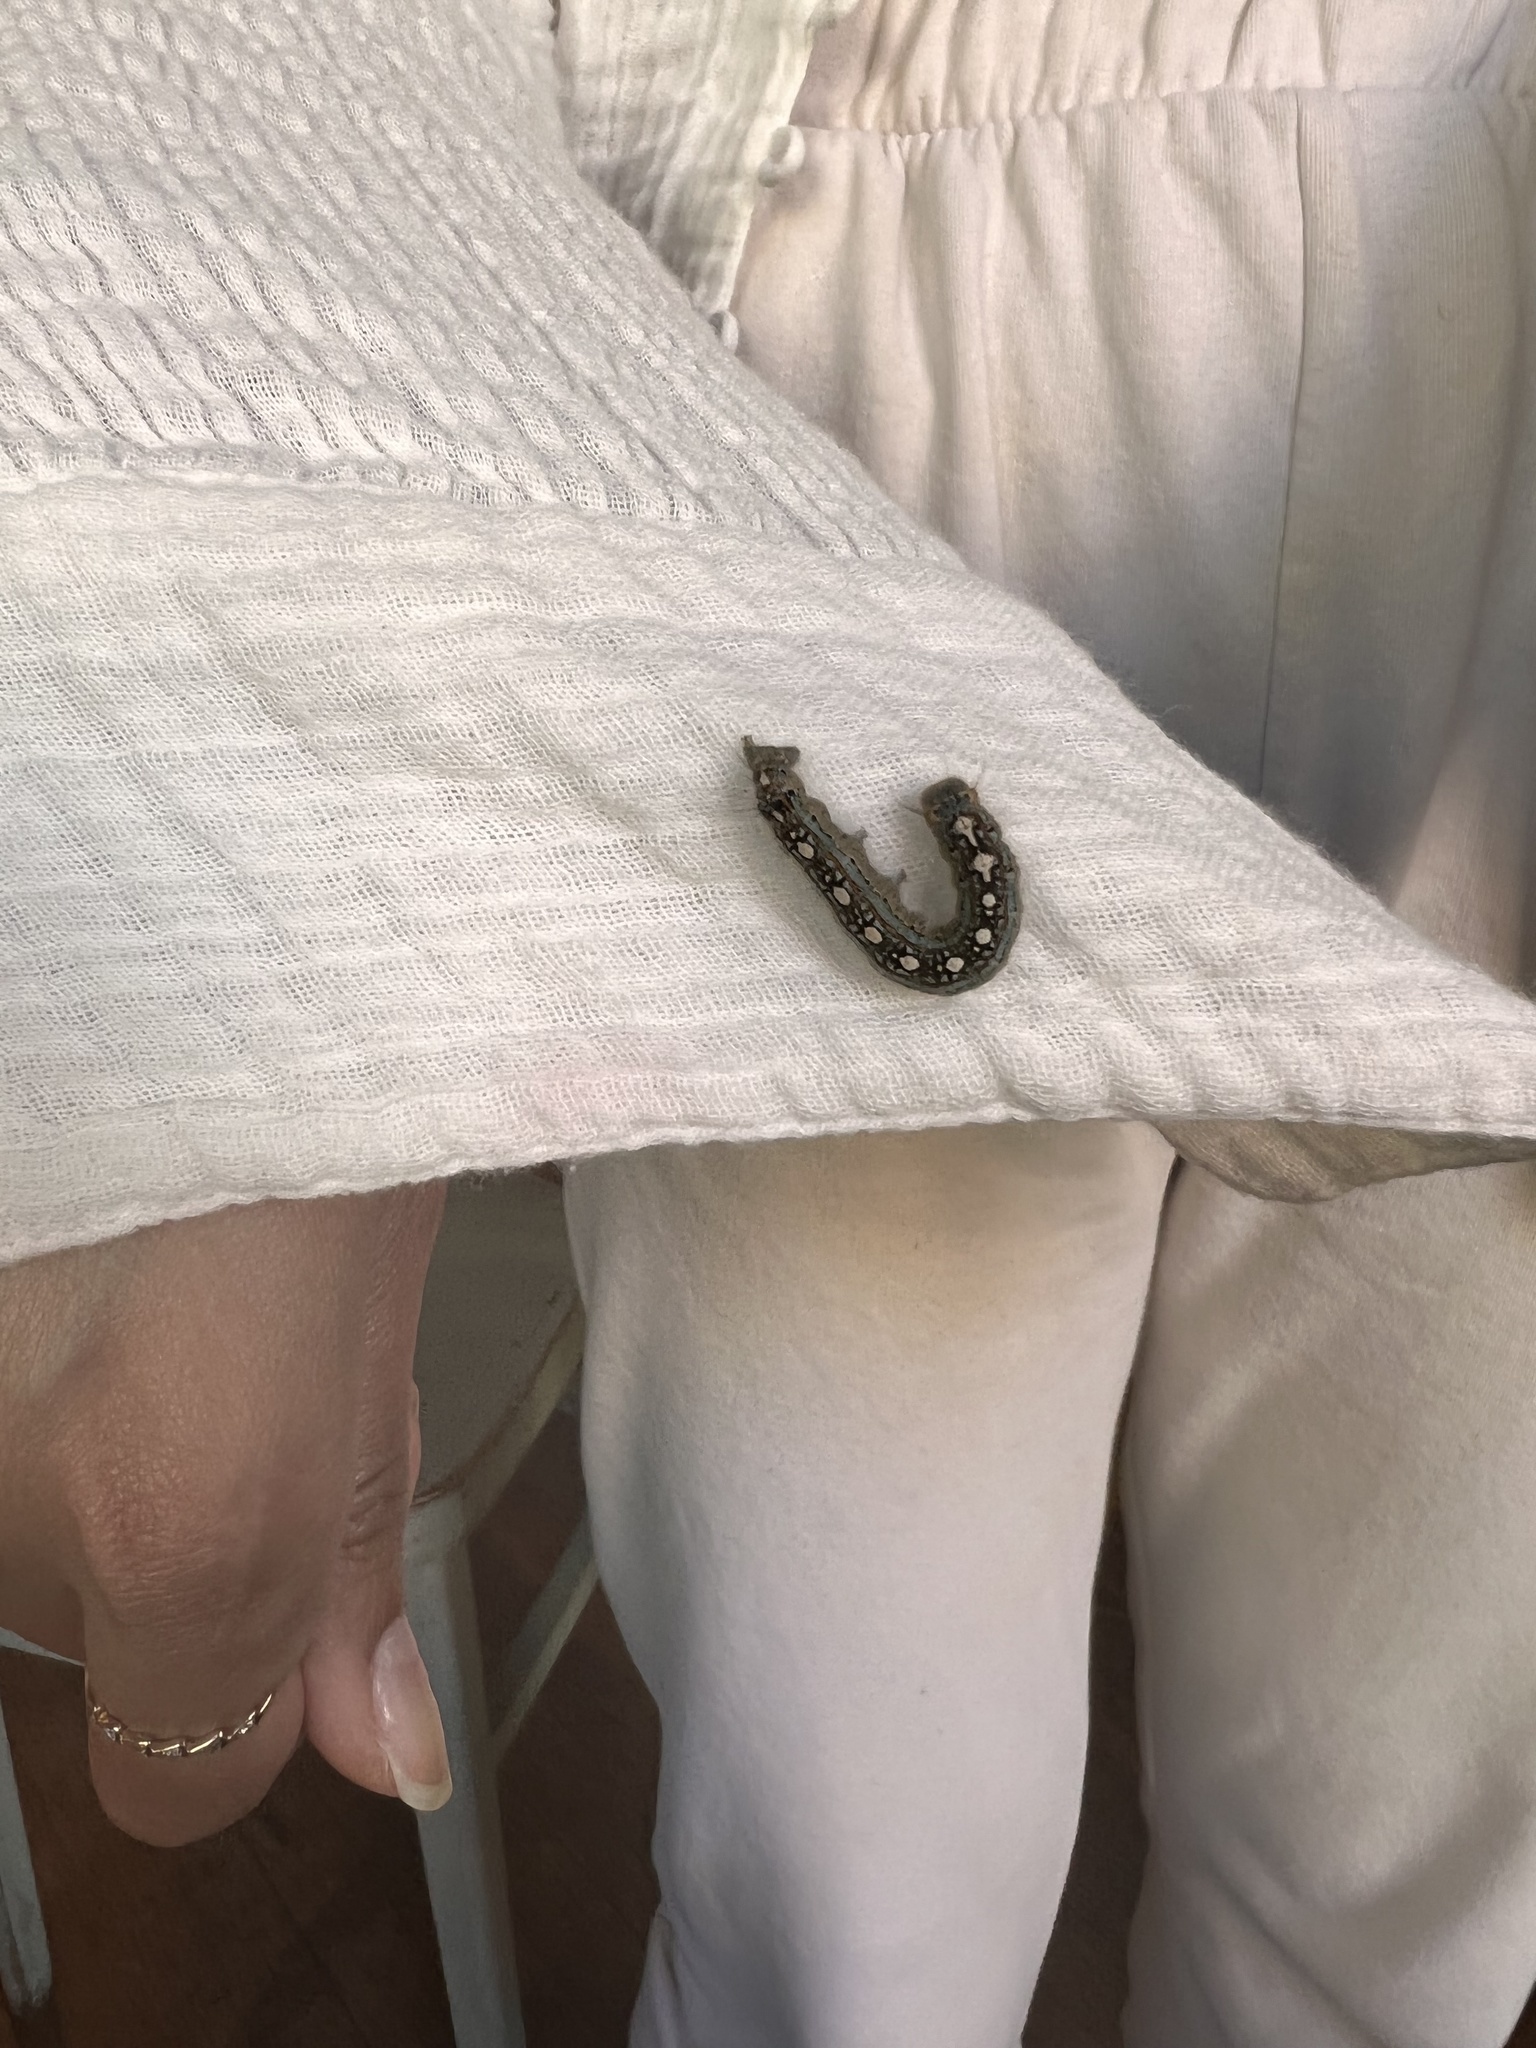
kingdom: Animalia
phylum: Arthropoda
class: Insecta
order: Lepidoptera
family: Lasiocampidae
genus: Malacosoma
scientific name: Malacosoma disstria
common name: Forest tent caterpillar
